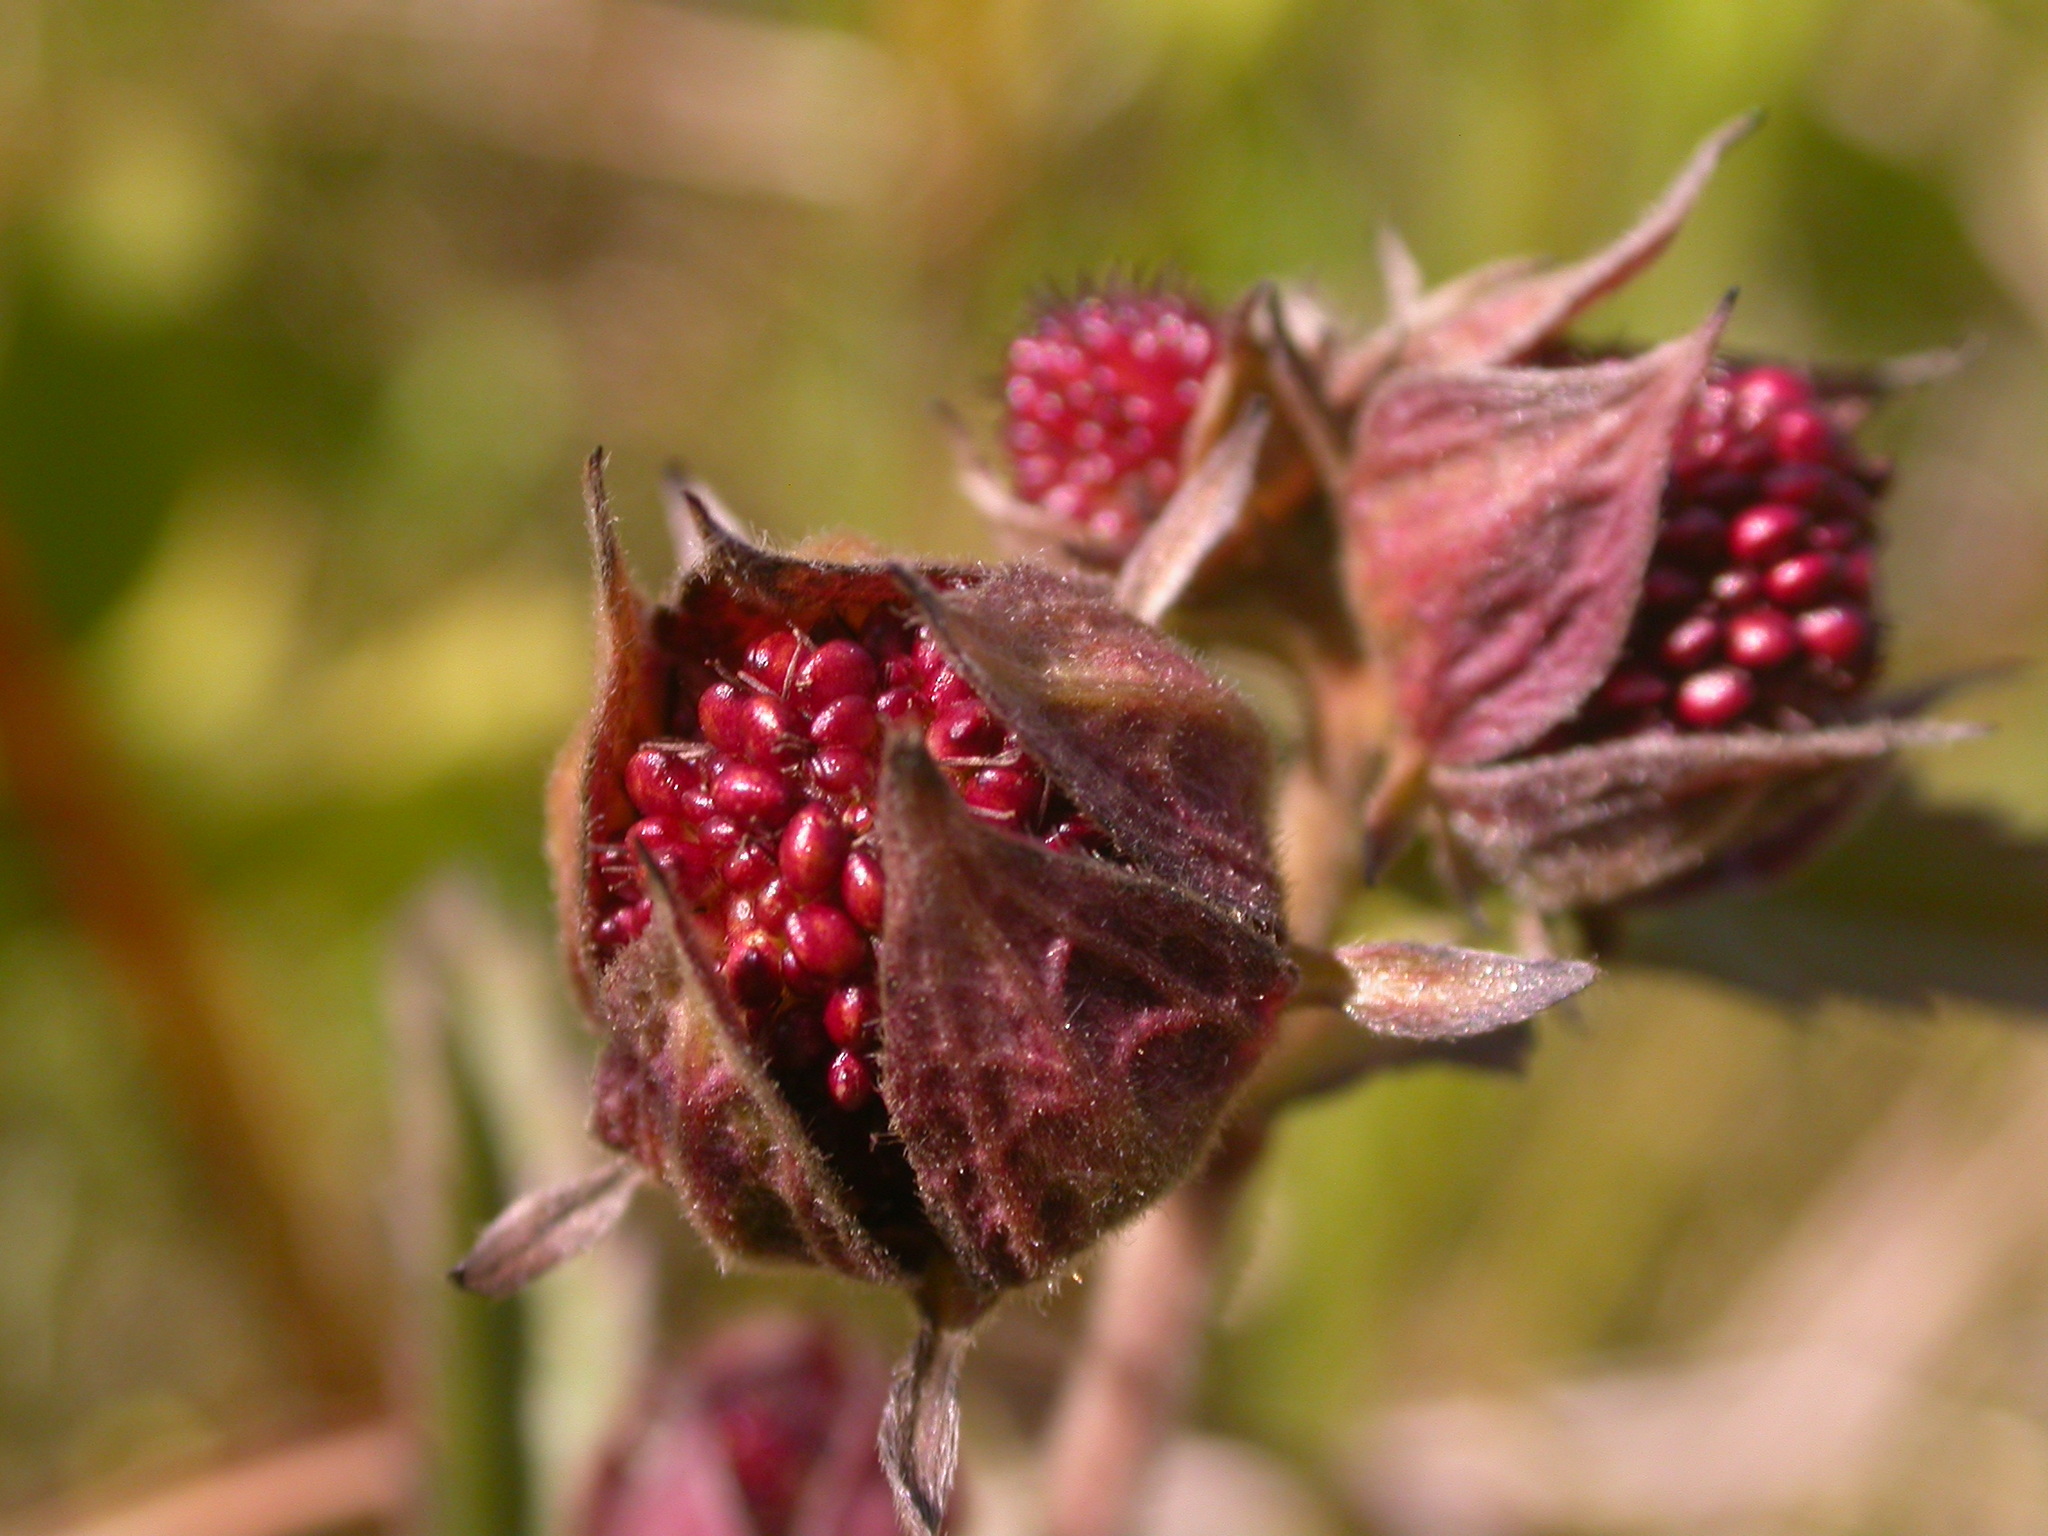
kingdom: Plantae
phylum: Tracheophyta
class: Magnoliopsida
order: Rosales
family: Rosaceae
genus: Comarum
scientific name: Comarum palustre
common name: Marsh cinquefoil
